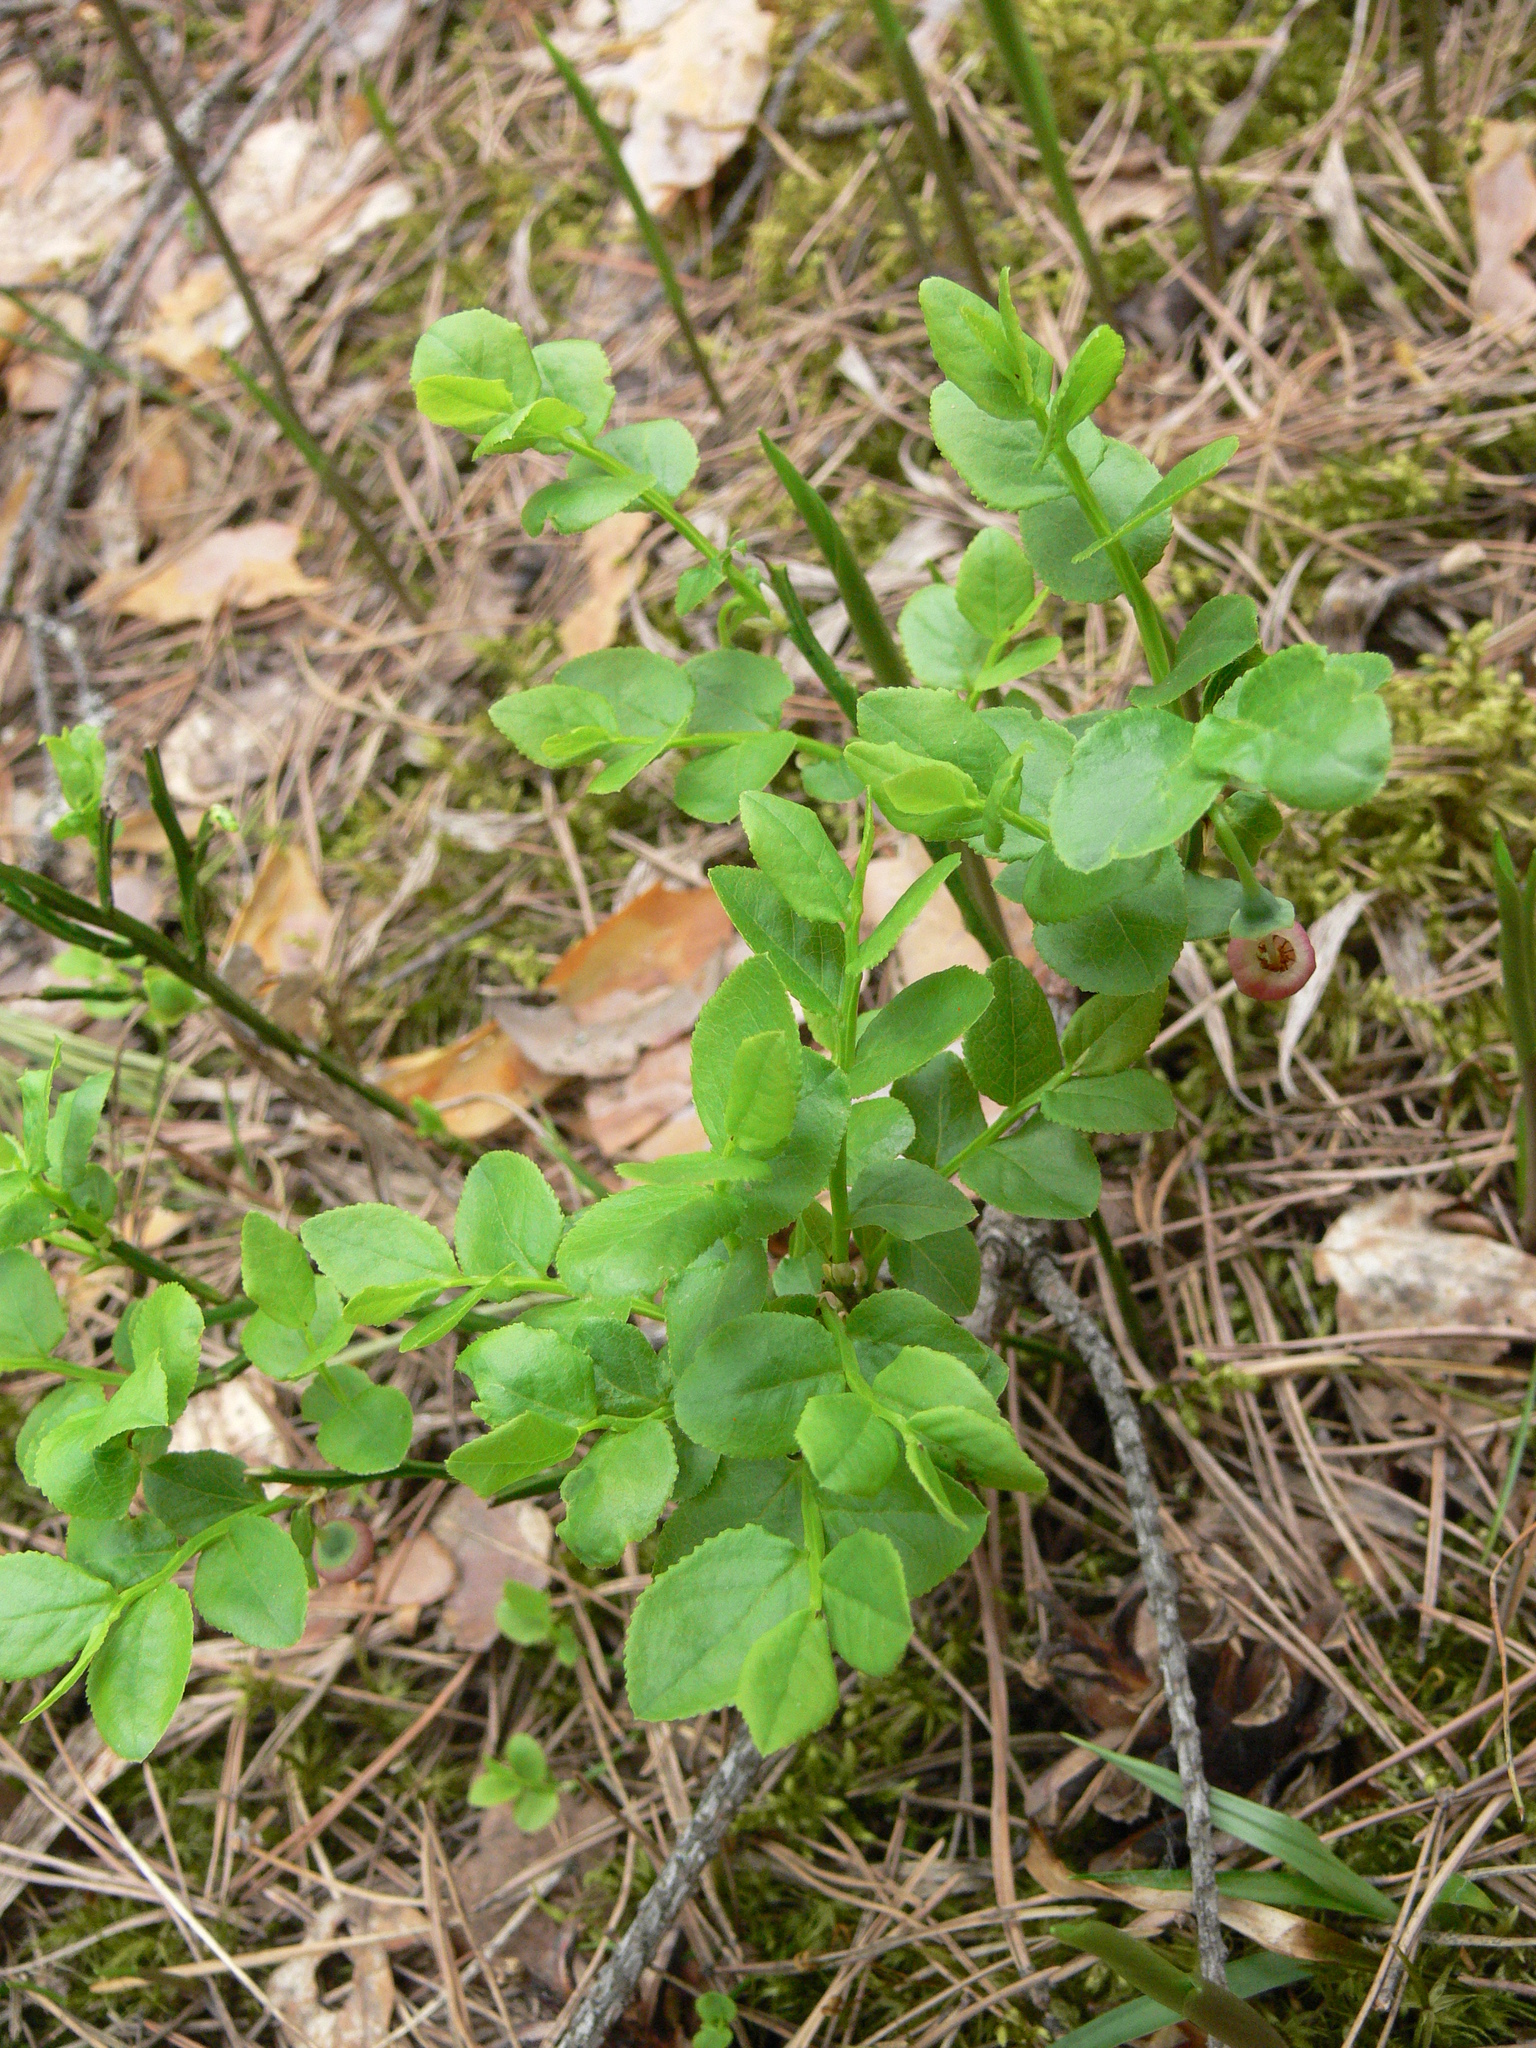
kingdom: Plantae
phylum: Tracheophyta
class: Magnoliopsida
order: Ericales
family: Ericaceae
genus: Vaccinium
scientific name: Vaccinium myrtillus
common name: Bilberry
